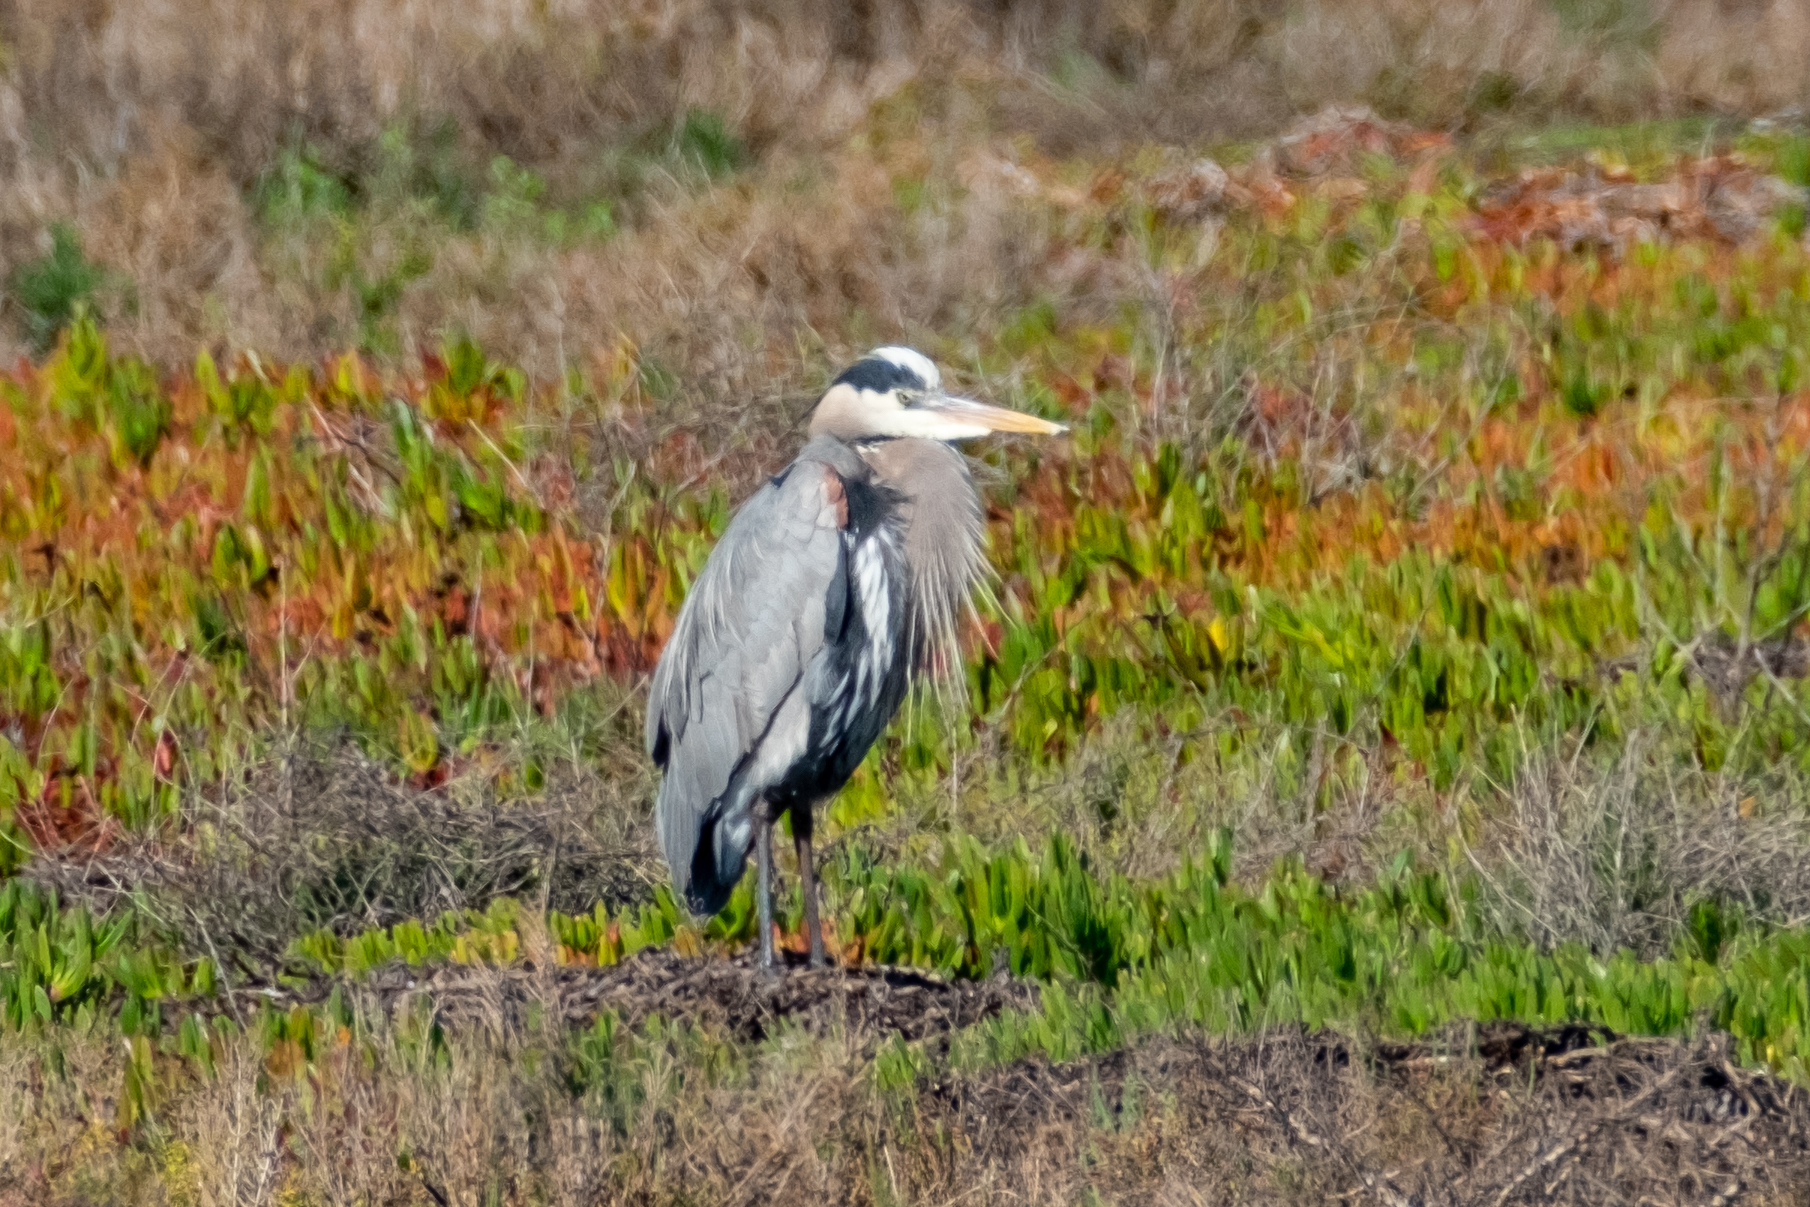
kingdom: Animalia
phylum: Chordata
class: Aves
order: Pelecaniformes
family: Ardeidae
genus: Ardea
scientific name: Ardea herodias
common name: Great blue heron
